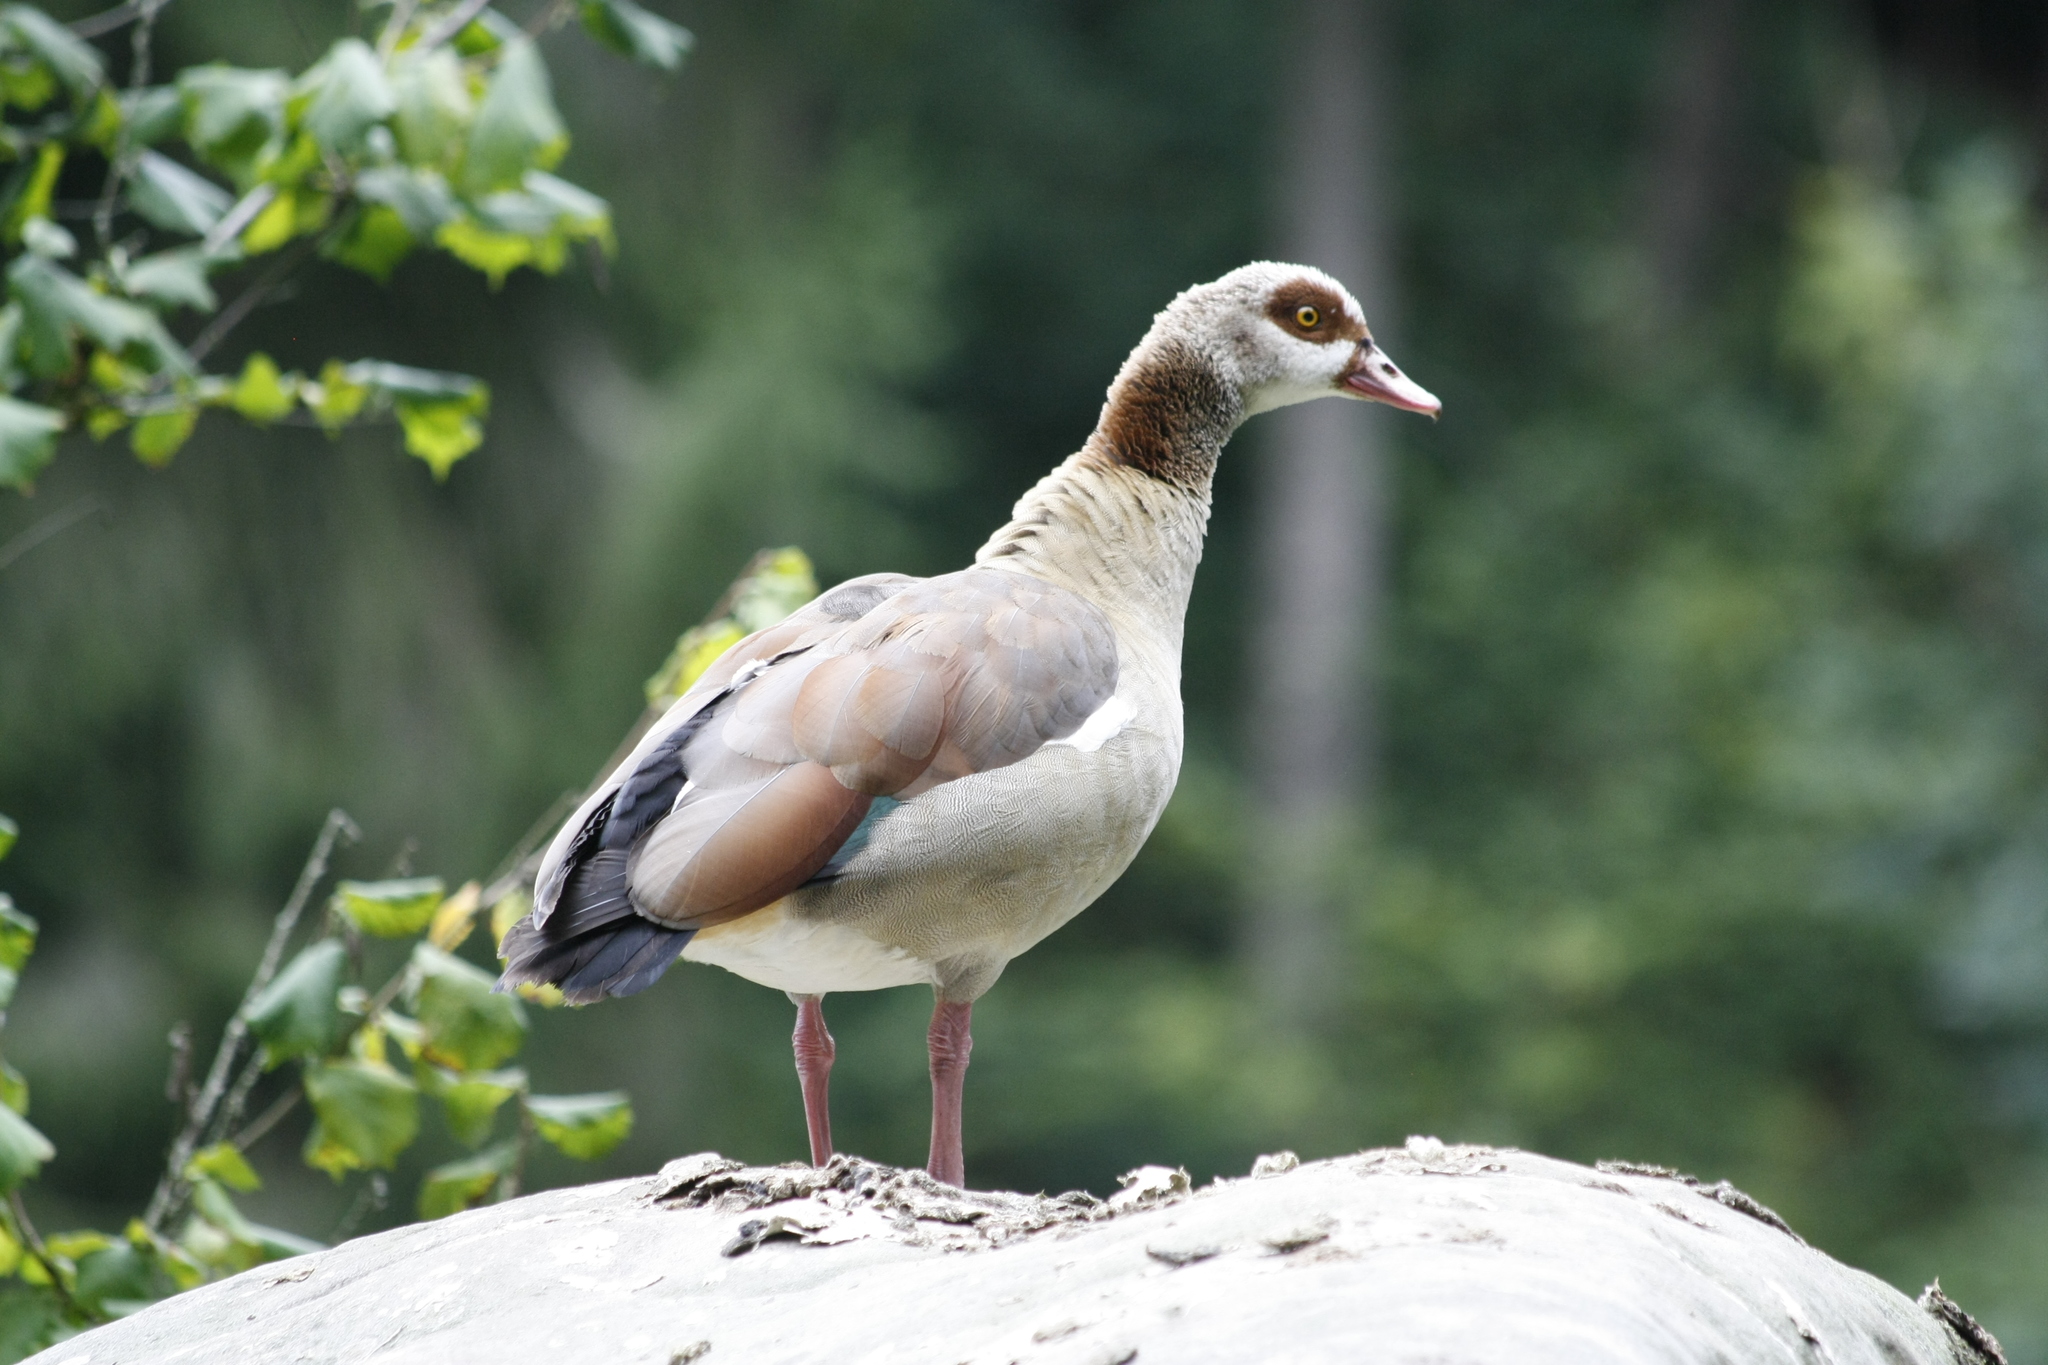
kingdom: Animalia
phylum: Chordata
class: Aves
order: Anseriformes
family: Anatidae
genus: Alopochen
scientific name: Alopochen aegyptiaca
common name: Egyptian goose
